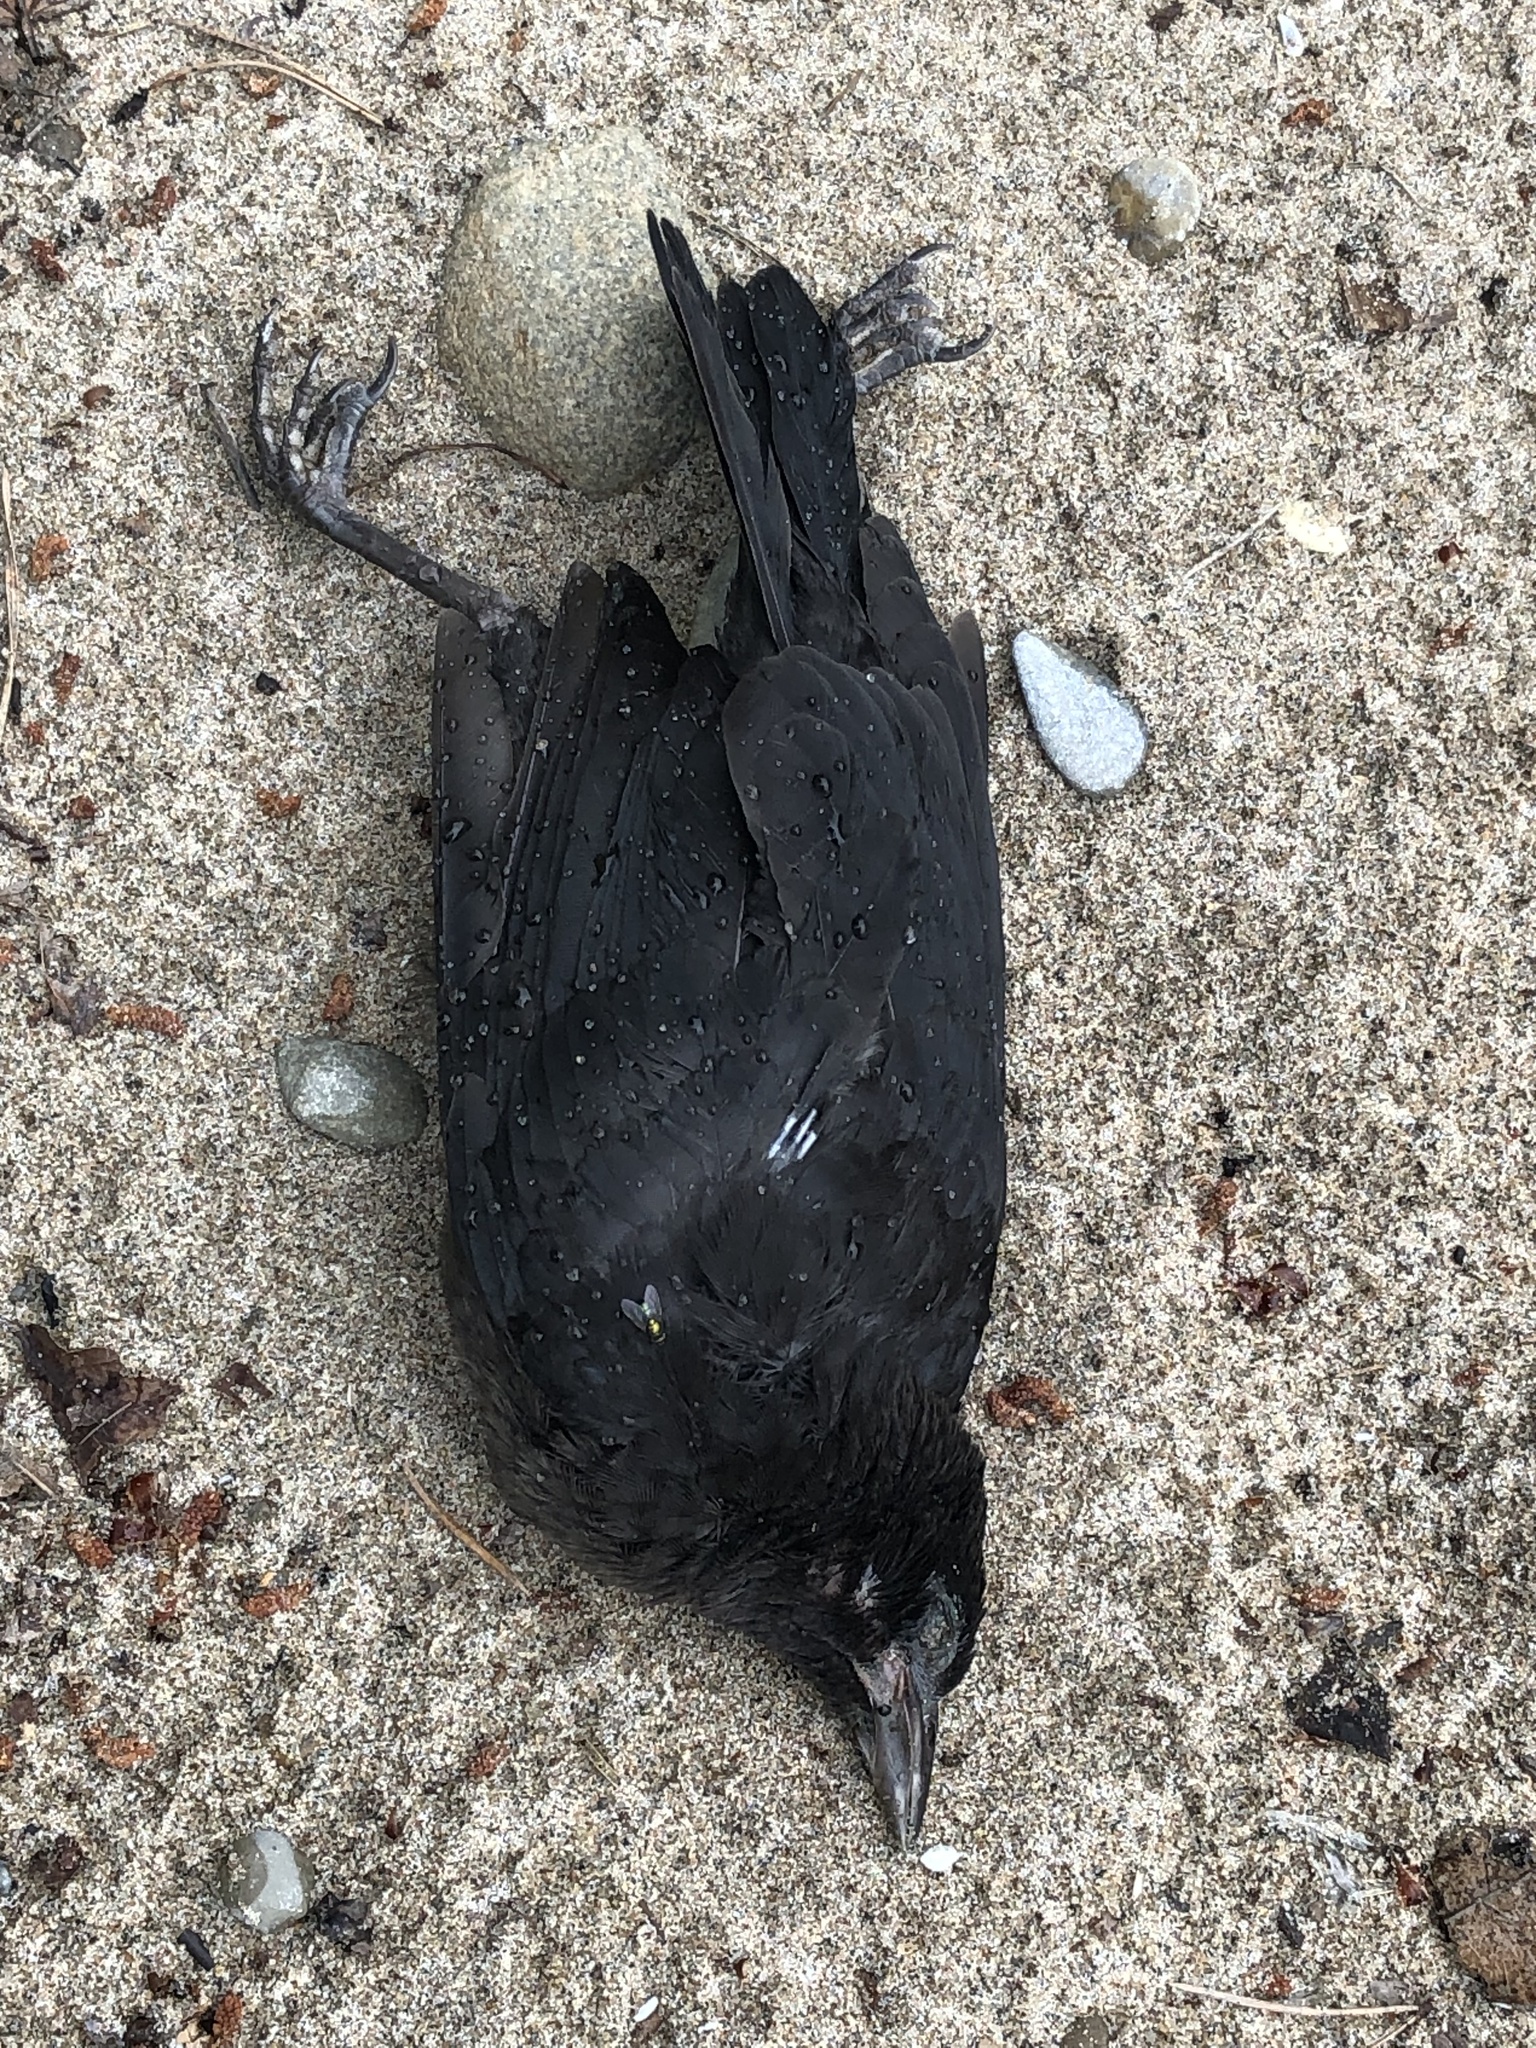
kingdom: Animalia
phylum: Chordata
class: Aves
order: Passeriformes
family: Corvidae
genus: Corvus
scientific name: Corvus brachyrhynchos
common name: American crow
